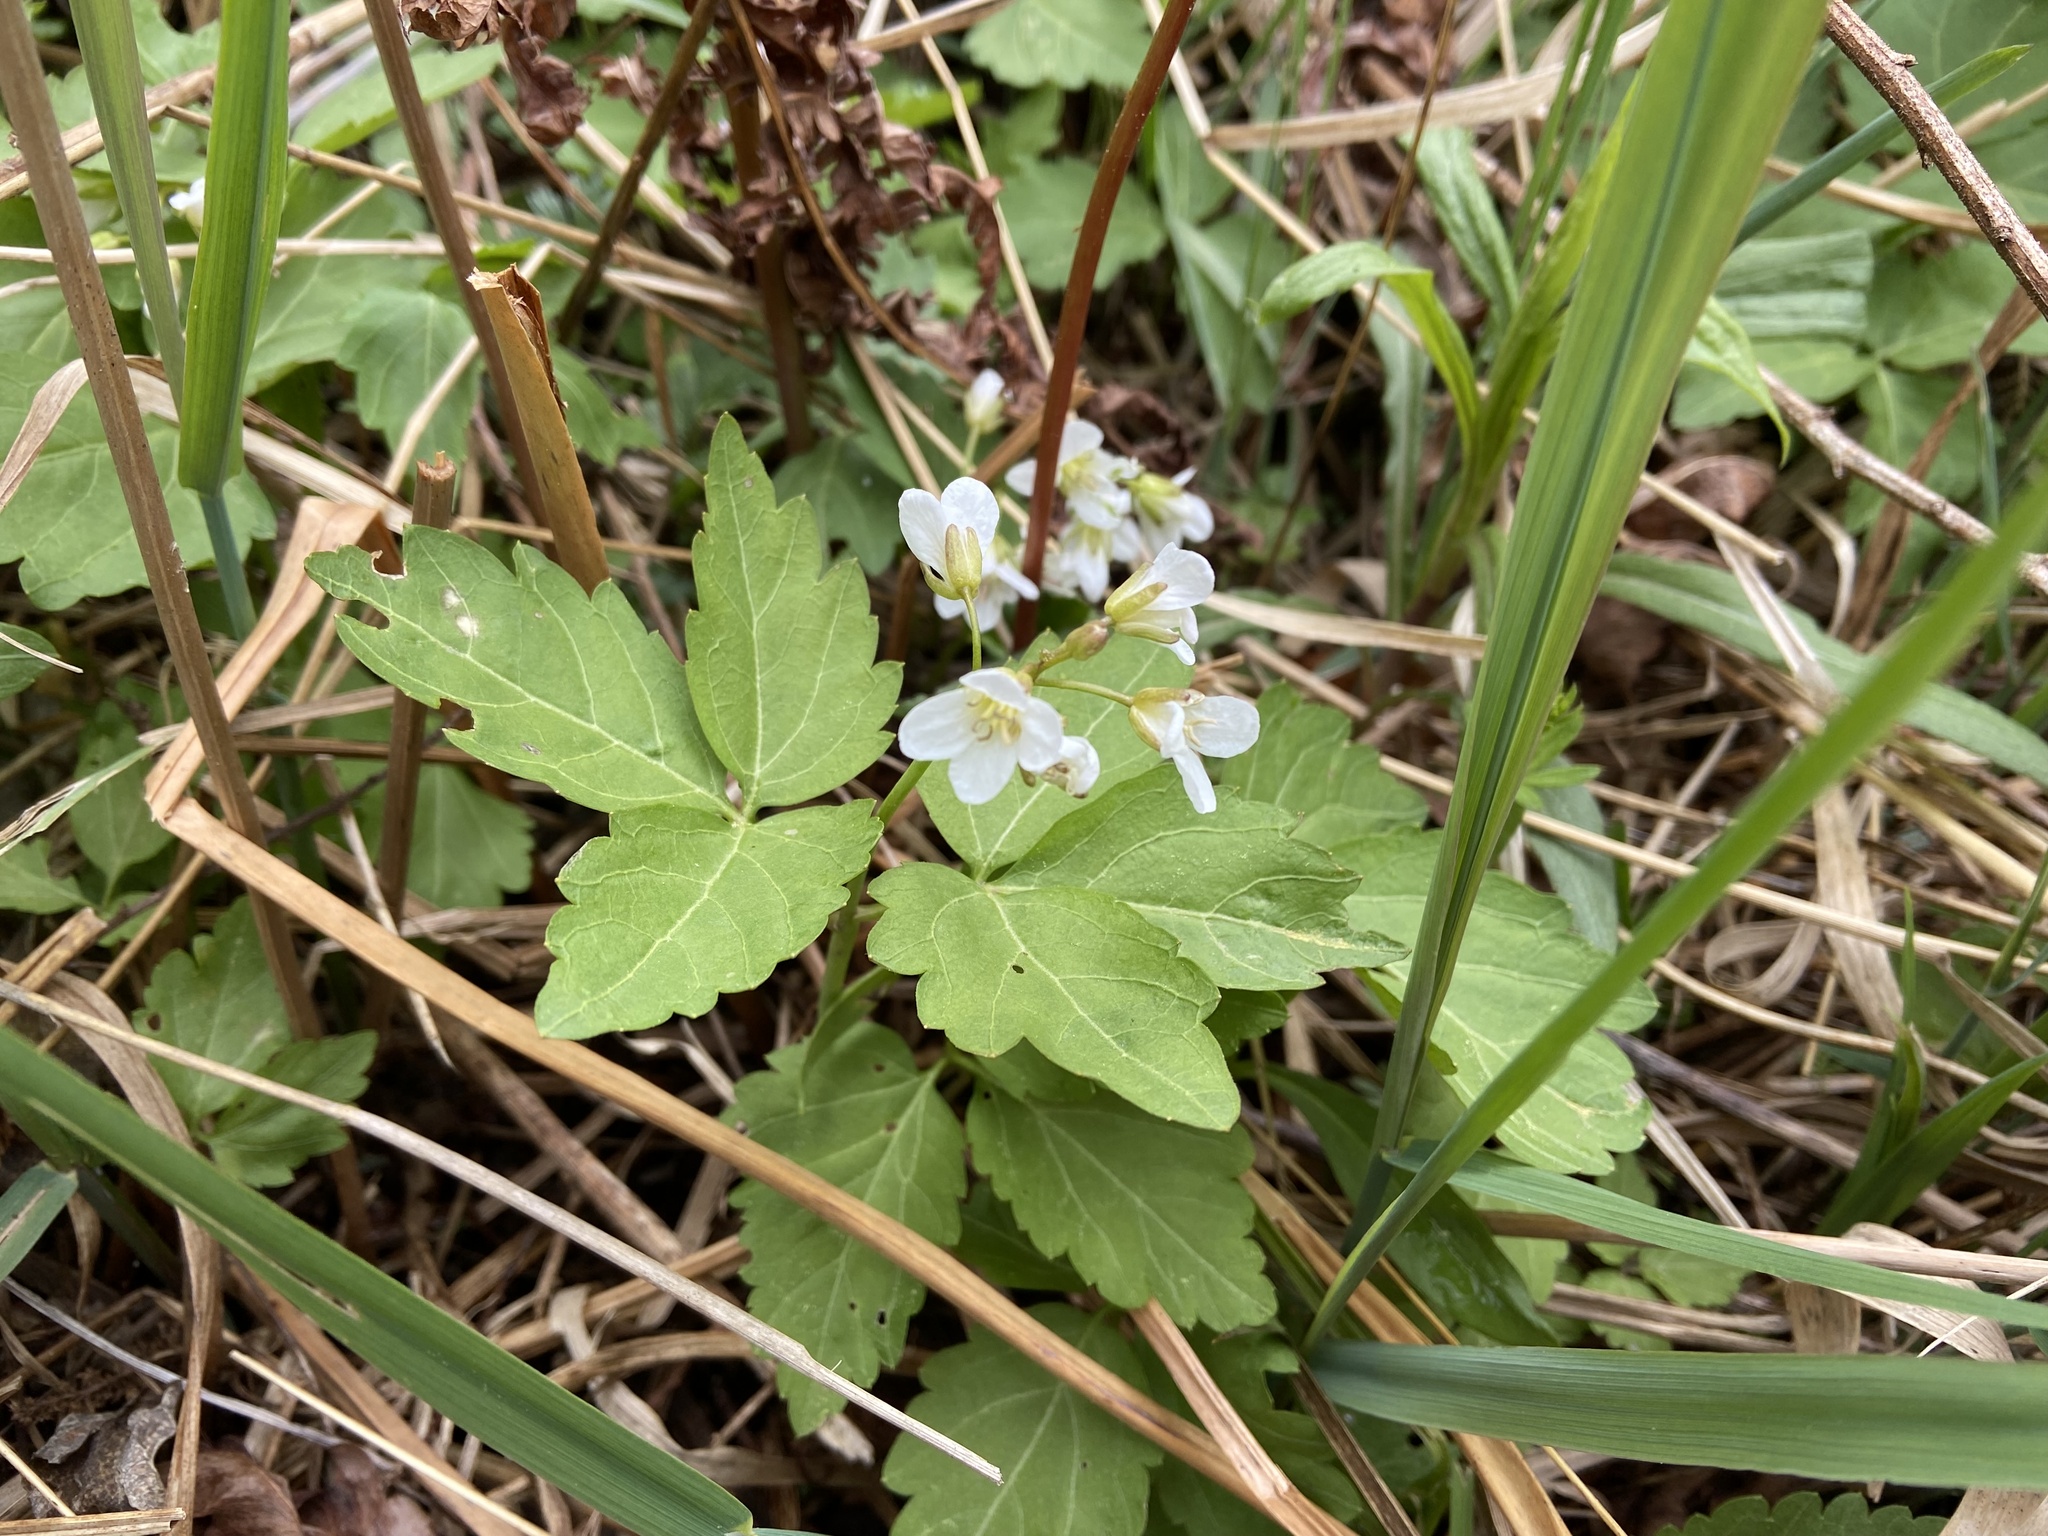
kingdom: Plantae
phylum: Tracheophyta
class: Magnoliopsida
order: Brassicales
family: Brassicaceae
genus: Cardamine
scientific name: Cardamine diphylla
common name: Broad-leaved toothwort
